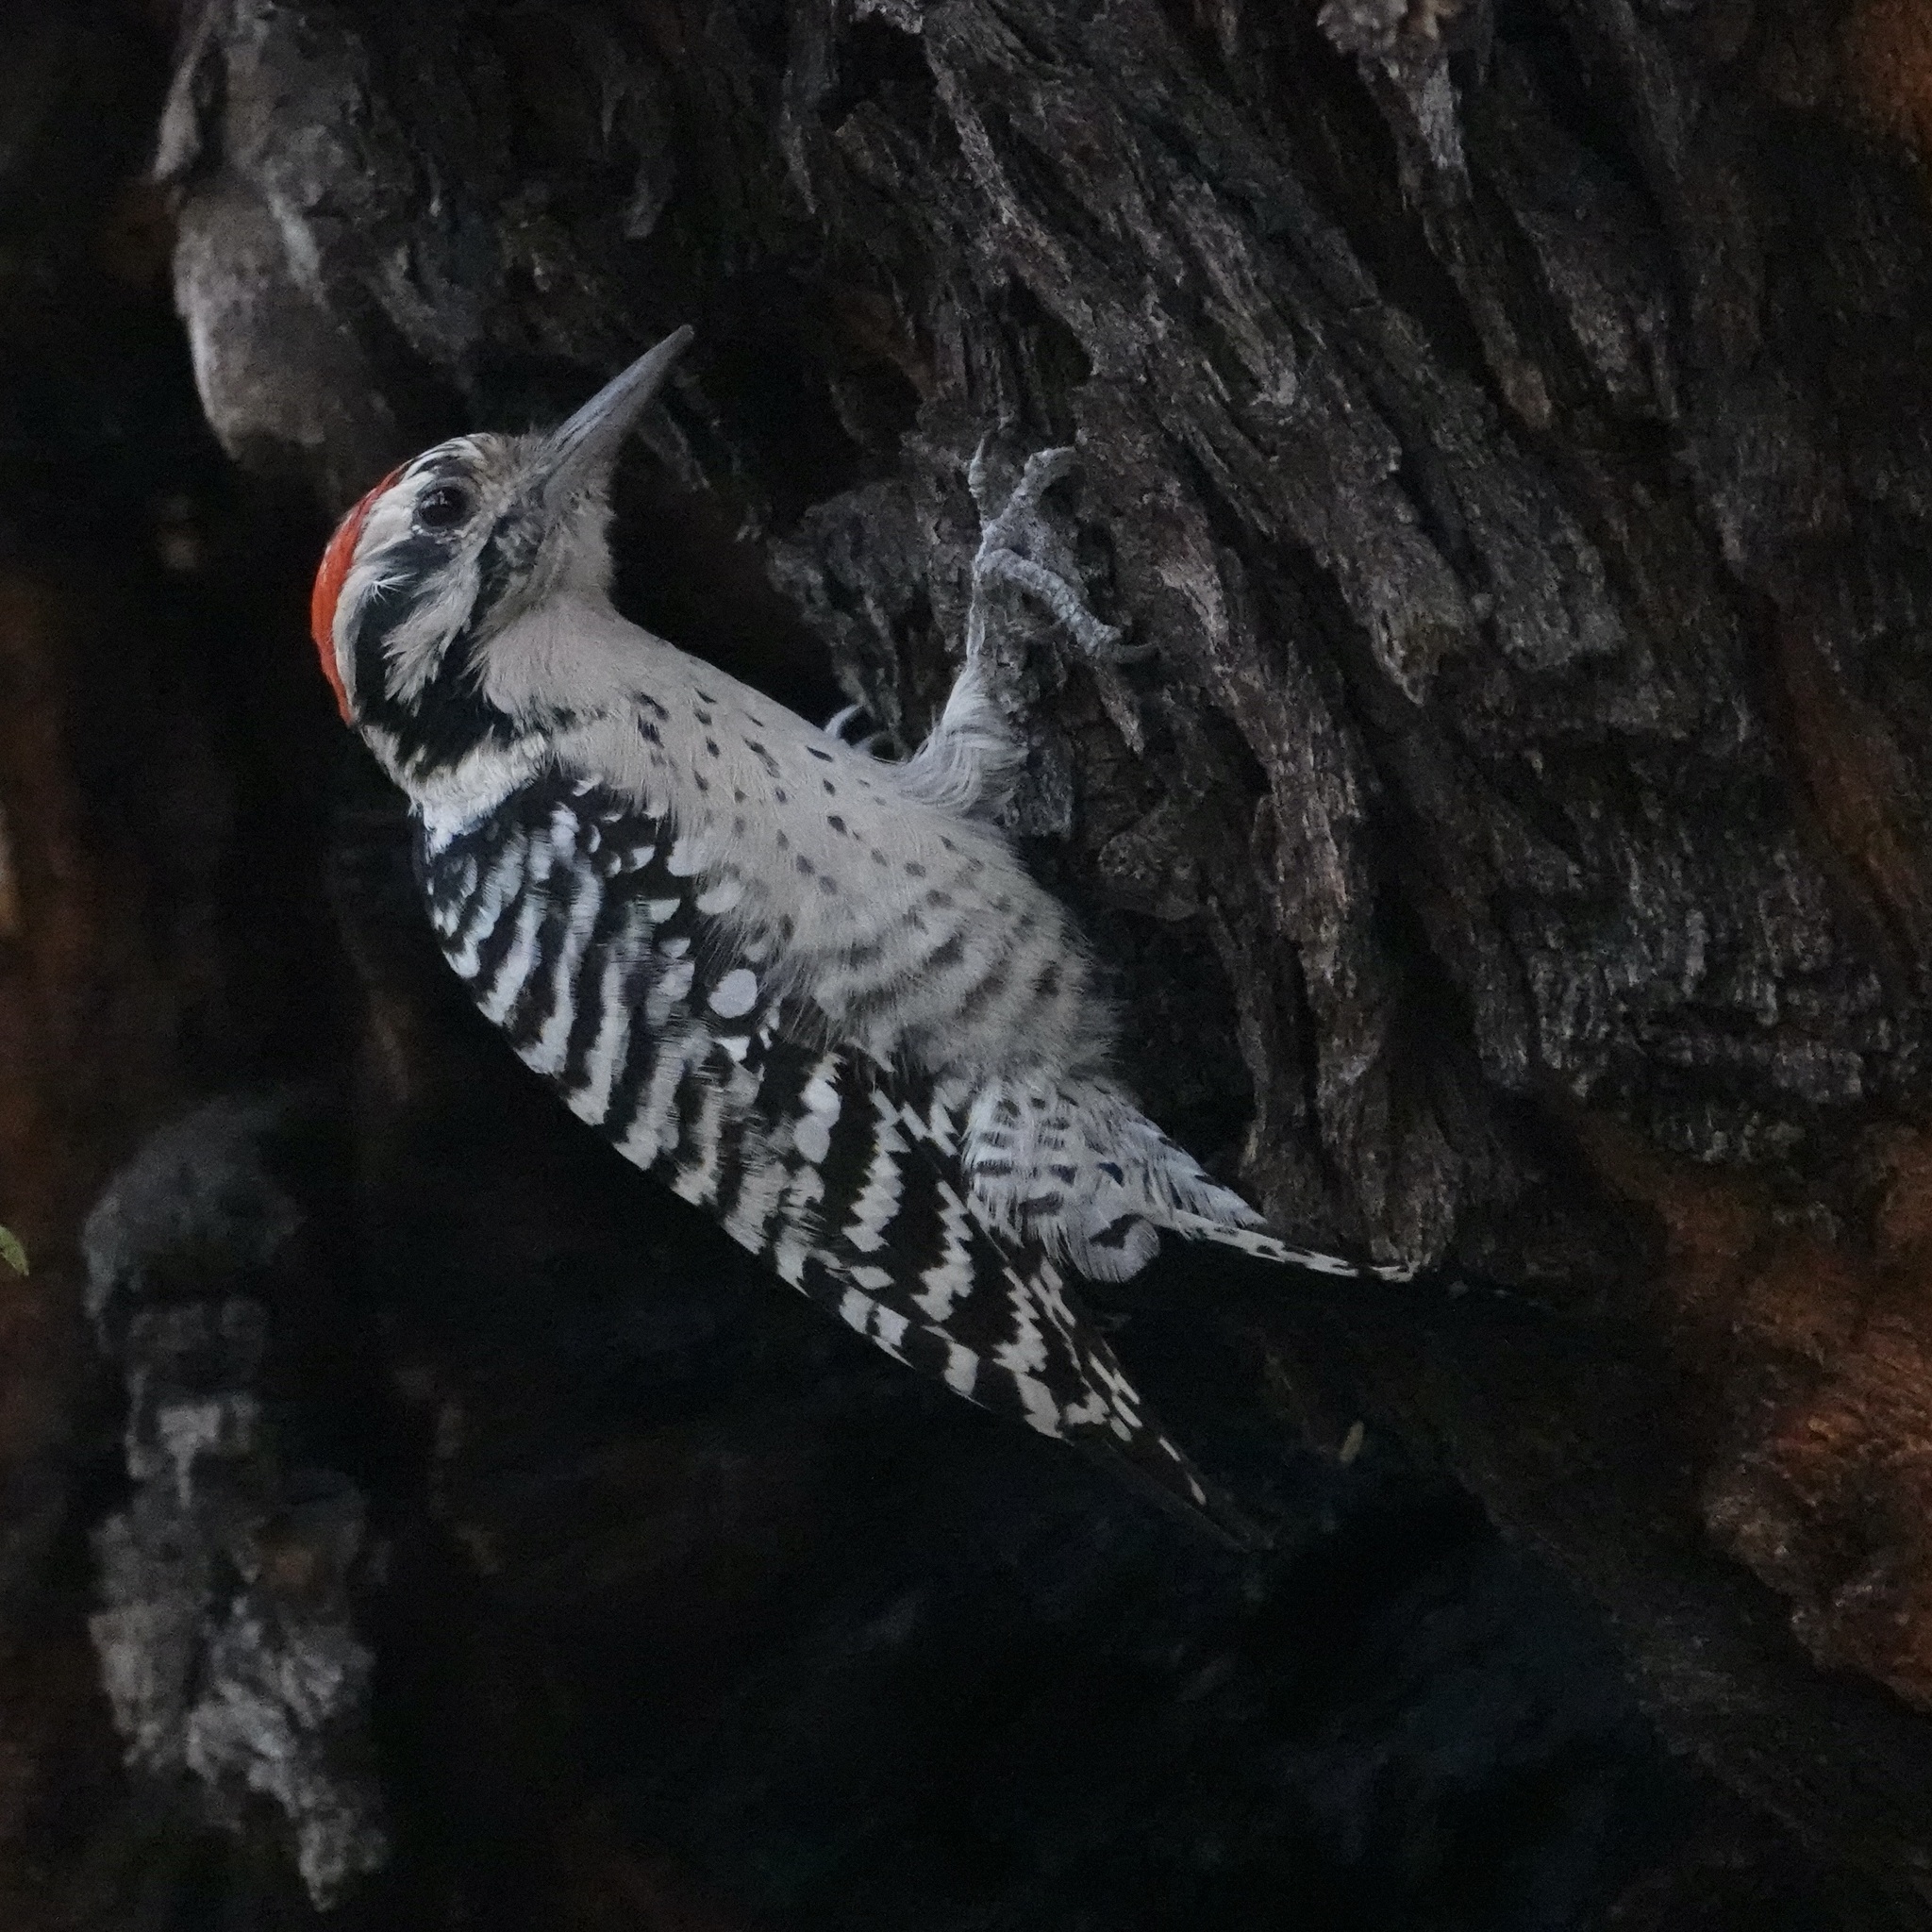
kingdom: Animalia
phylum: Chordata
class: Aves
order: Piciformes
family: Picidae
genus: Dryobates
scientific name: Dryobates scalaris
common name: Ladder-backed woodpecker
